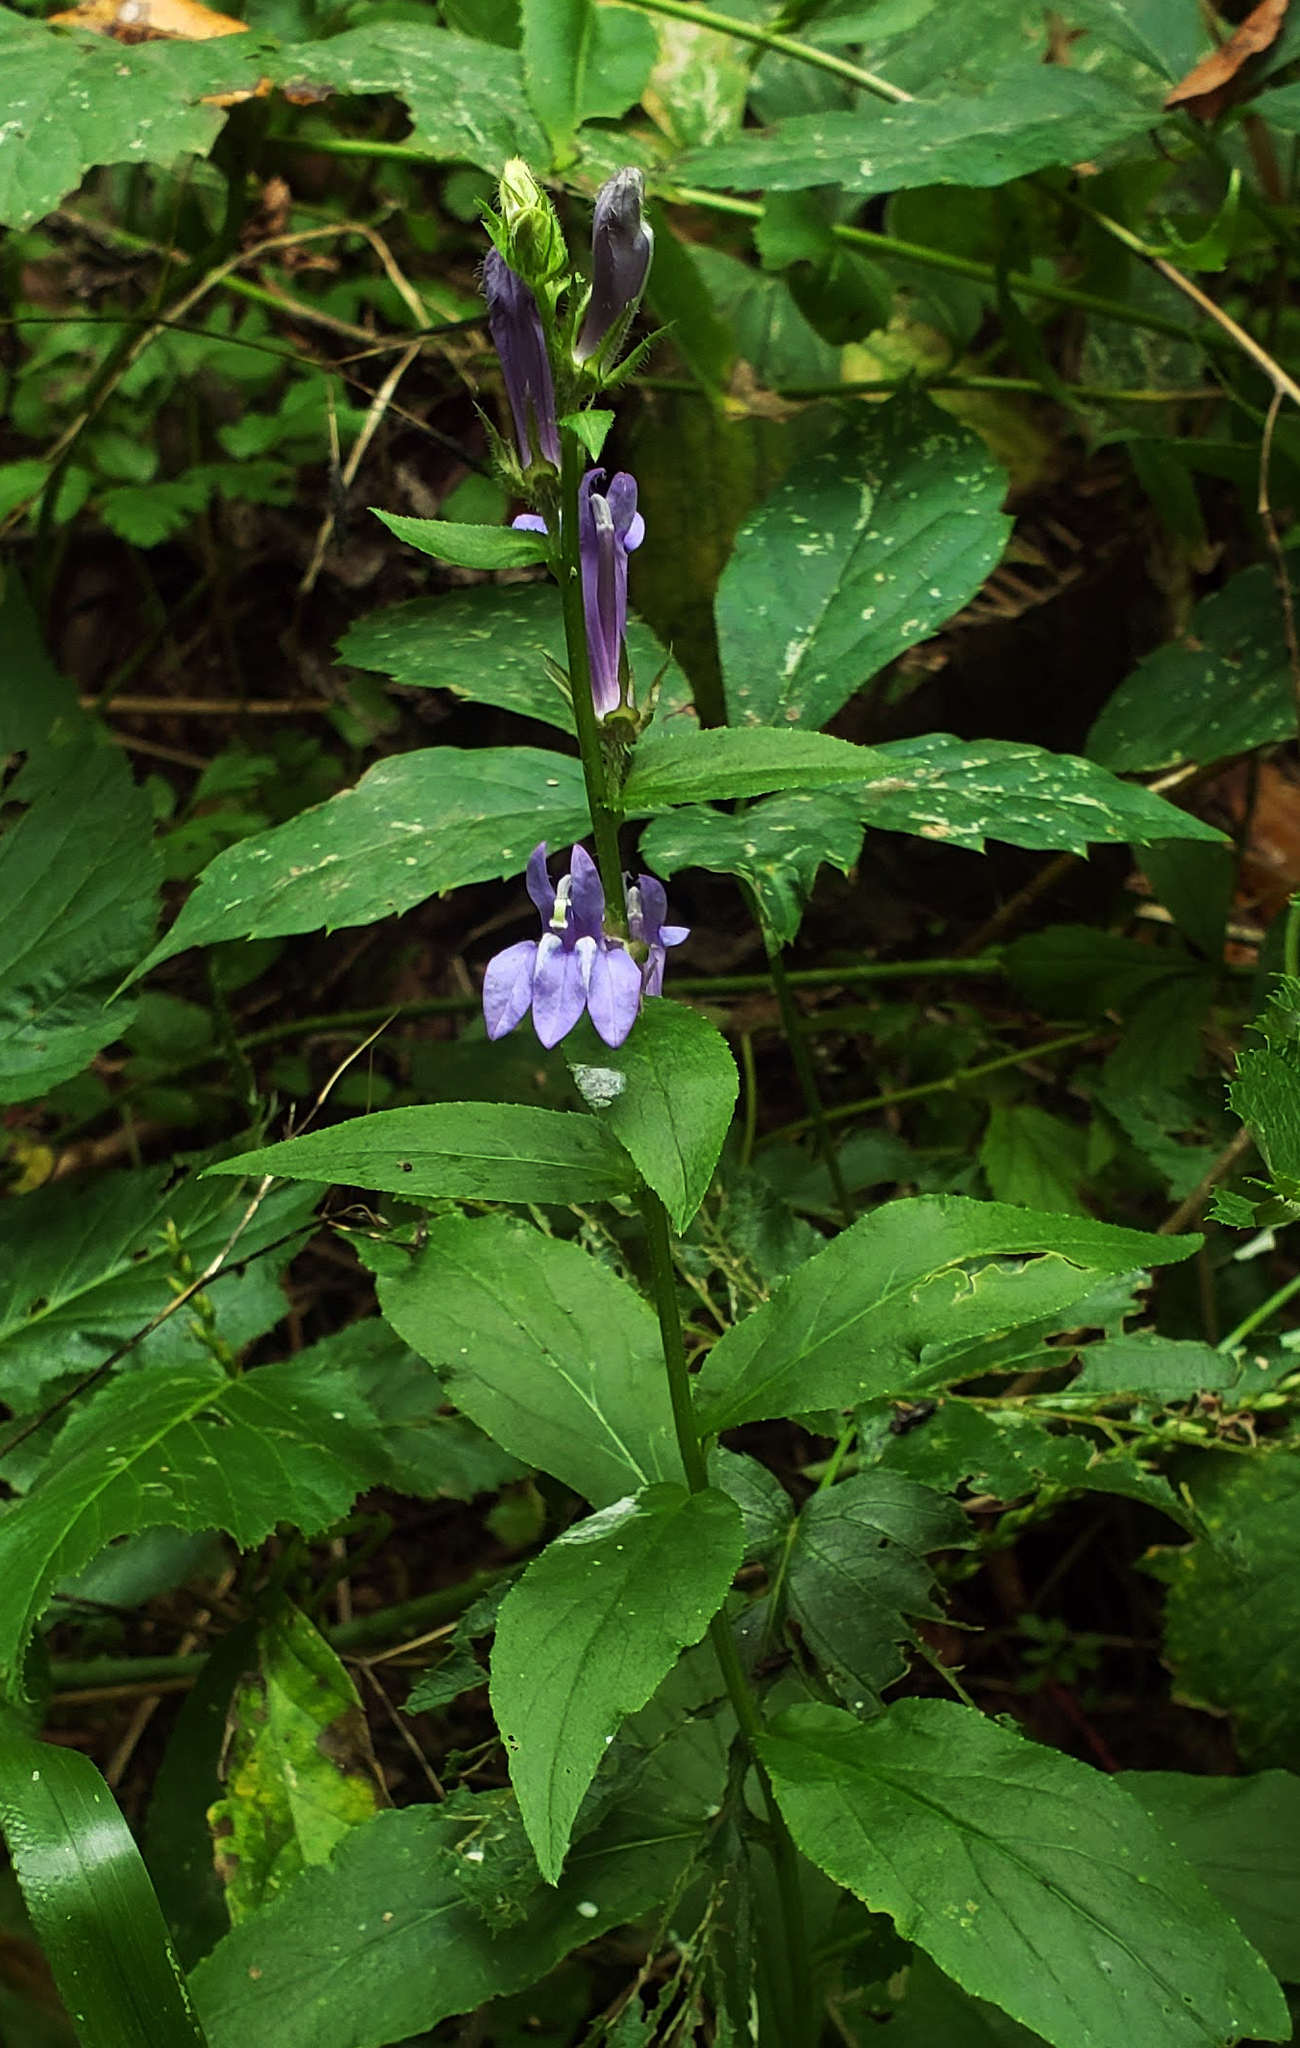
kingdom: Plantae
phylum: Tracheophyta
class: Magnoliopsida
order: Asterales
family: Campanulaceae
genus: Lobelia
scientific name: Lobelia siphilitica
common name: Great lobelia
